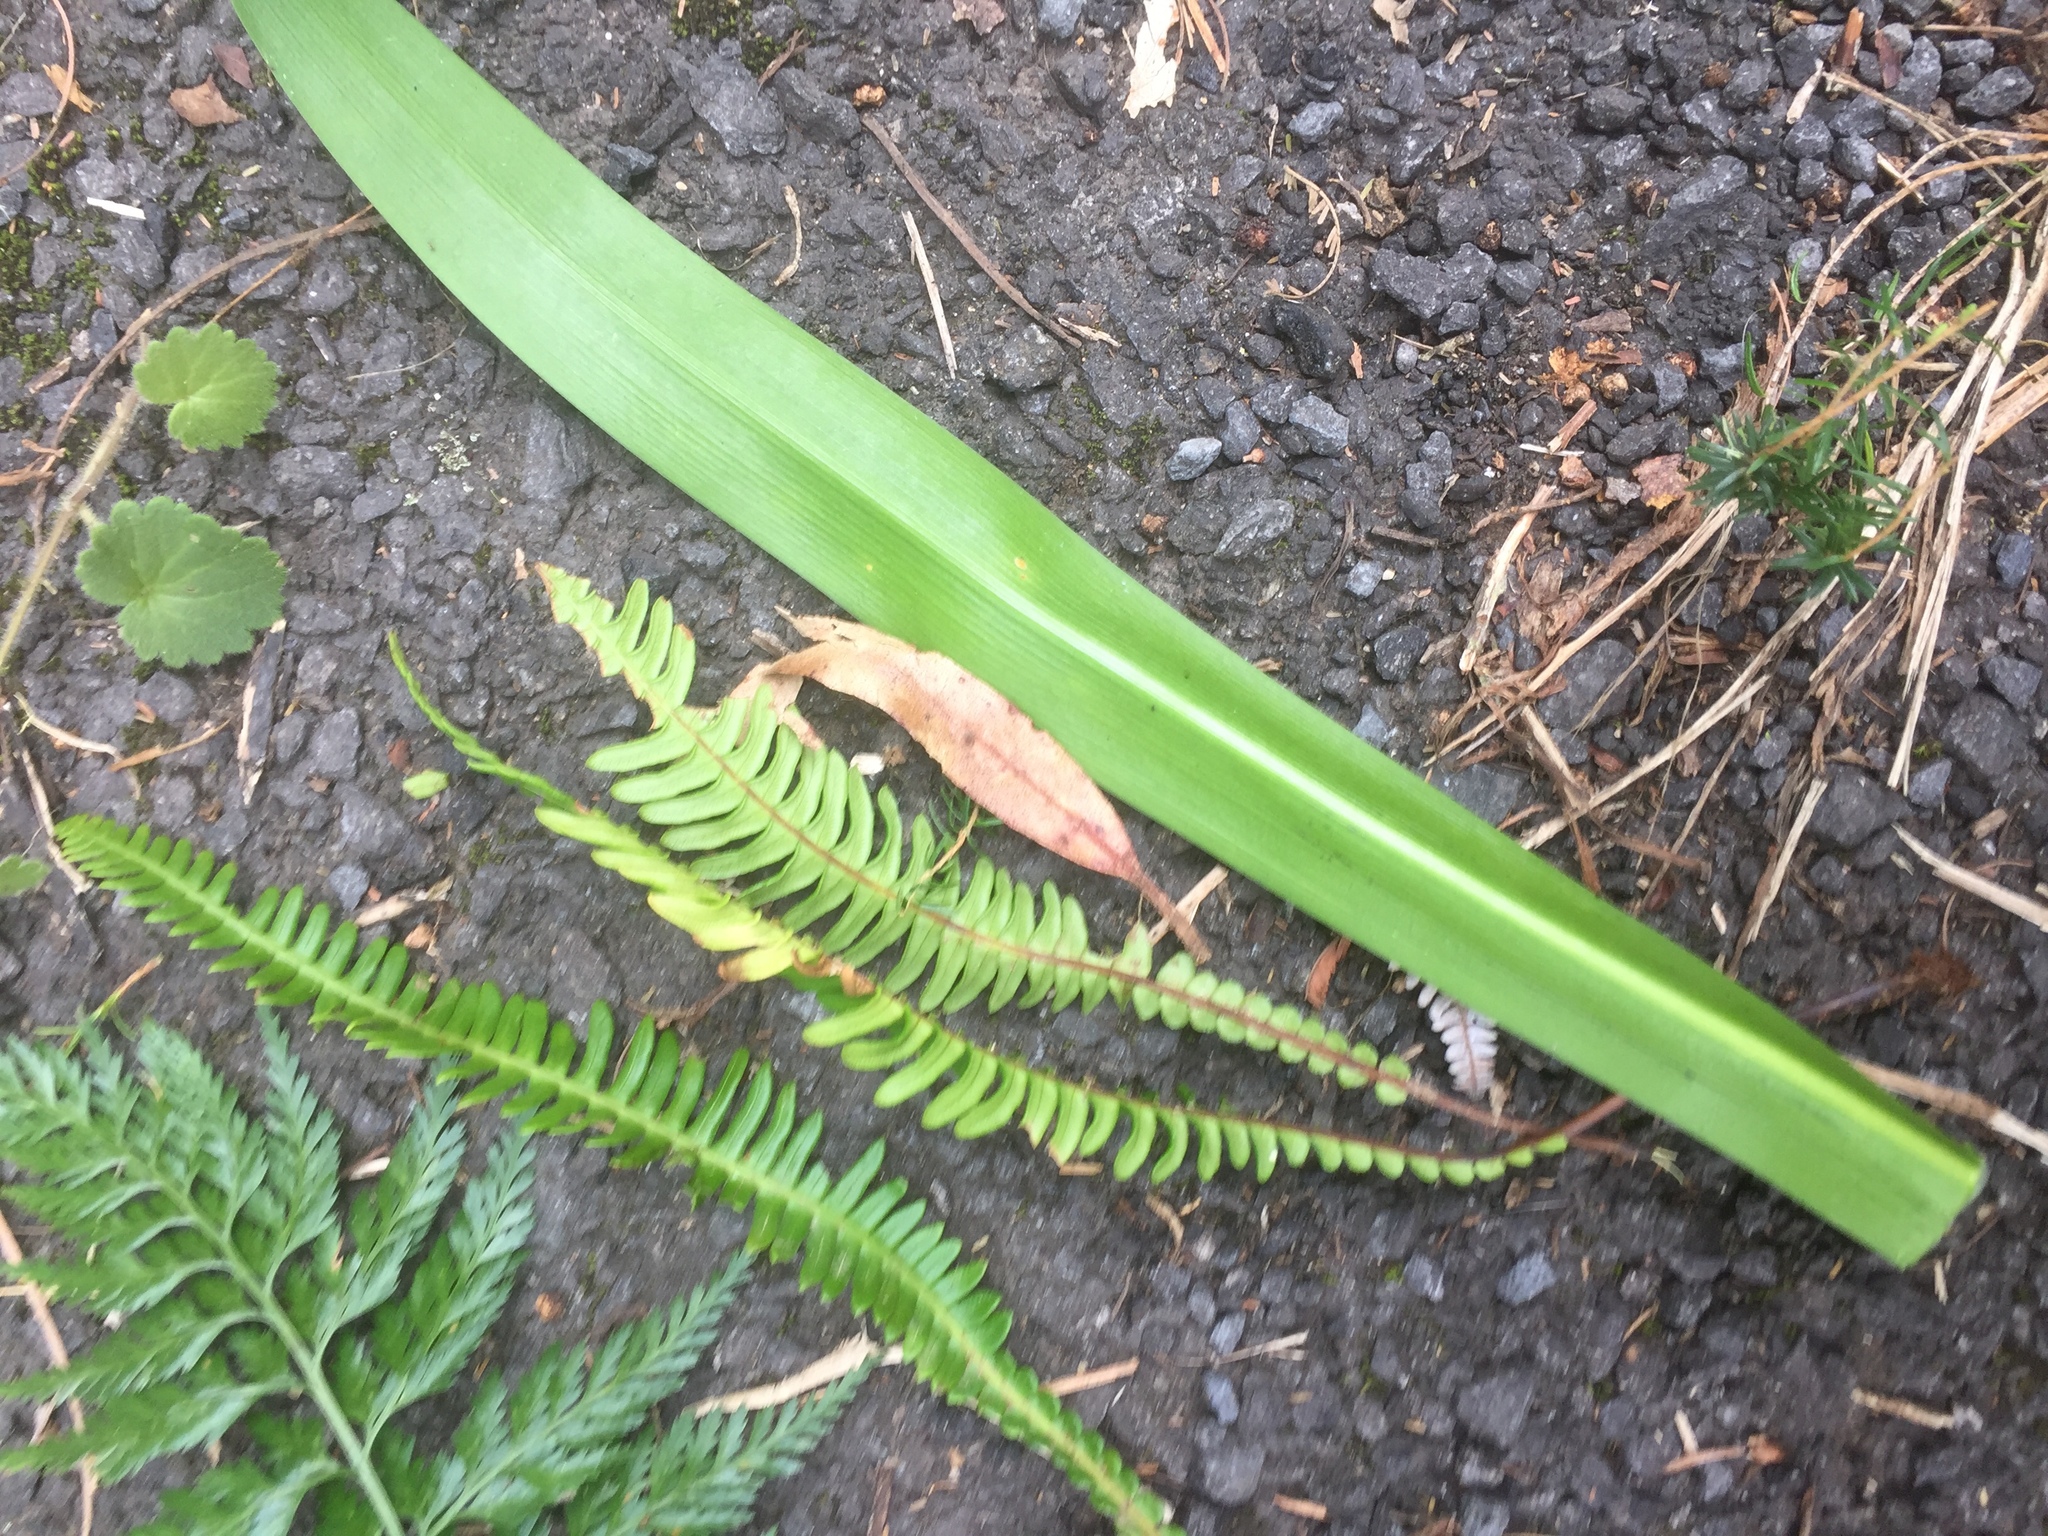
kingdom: Plantae
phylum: Tracheophyta
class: Polypodiopsida
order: Polypodiales
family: Blechnaceae
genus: Struthiopteris
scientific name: Struthiopteris spicant
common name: Deer fern
